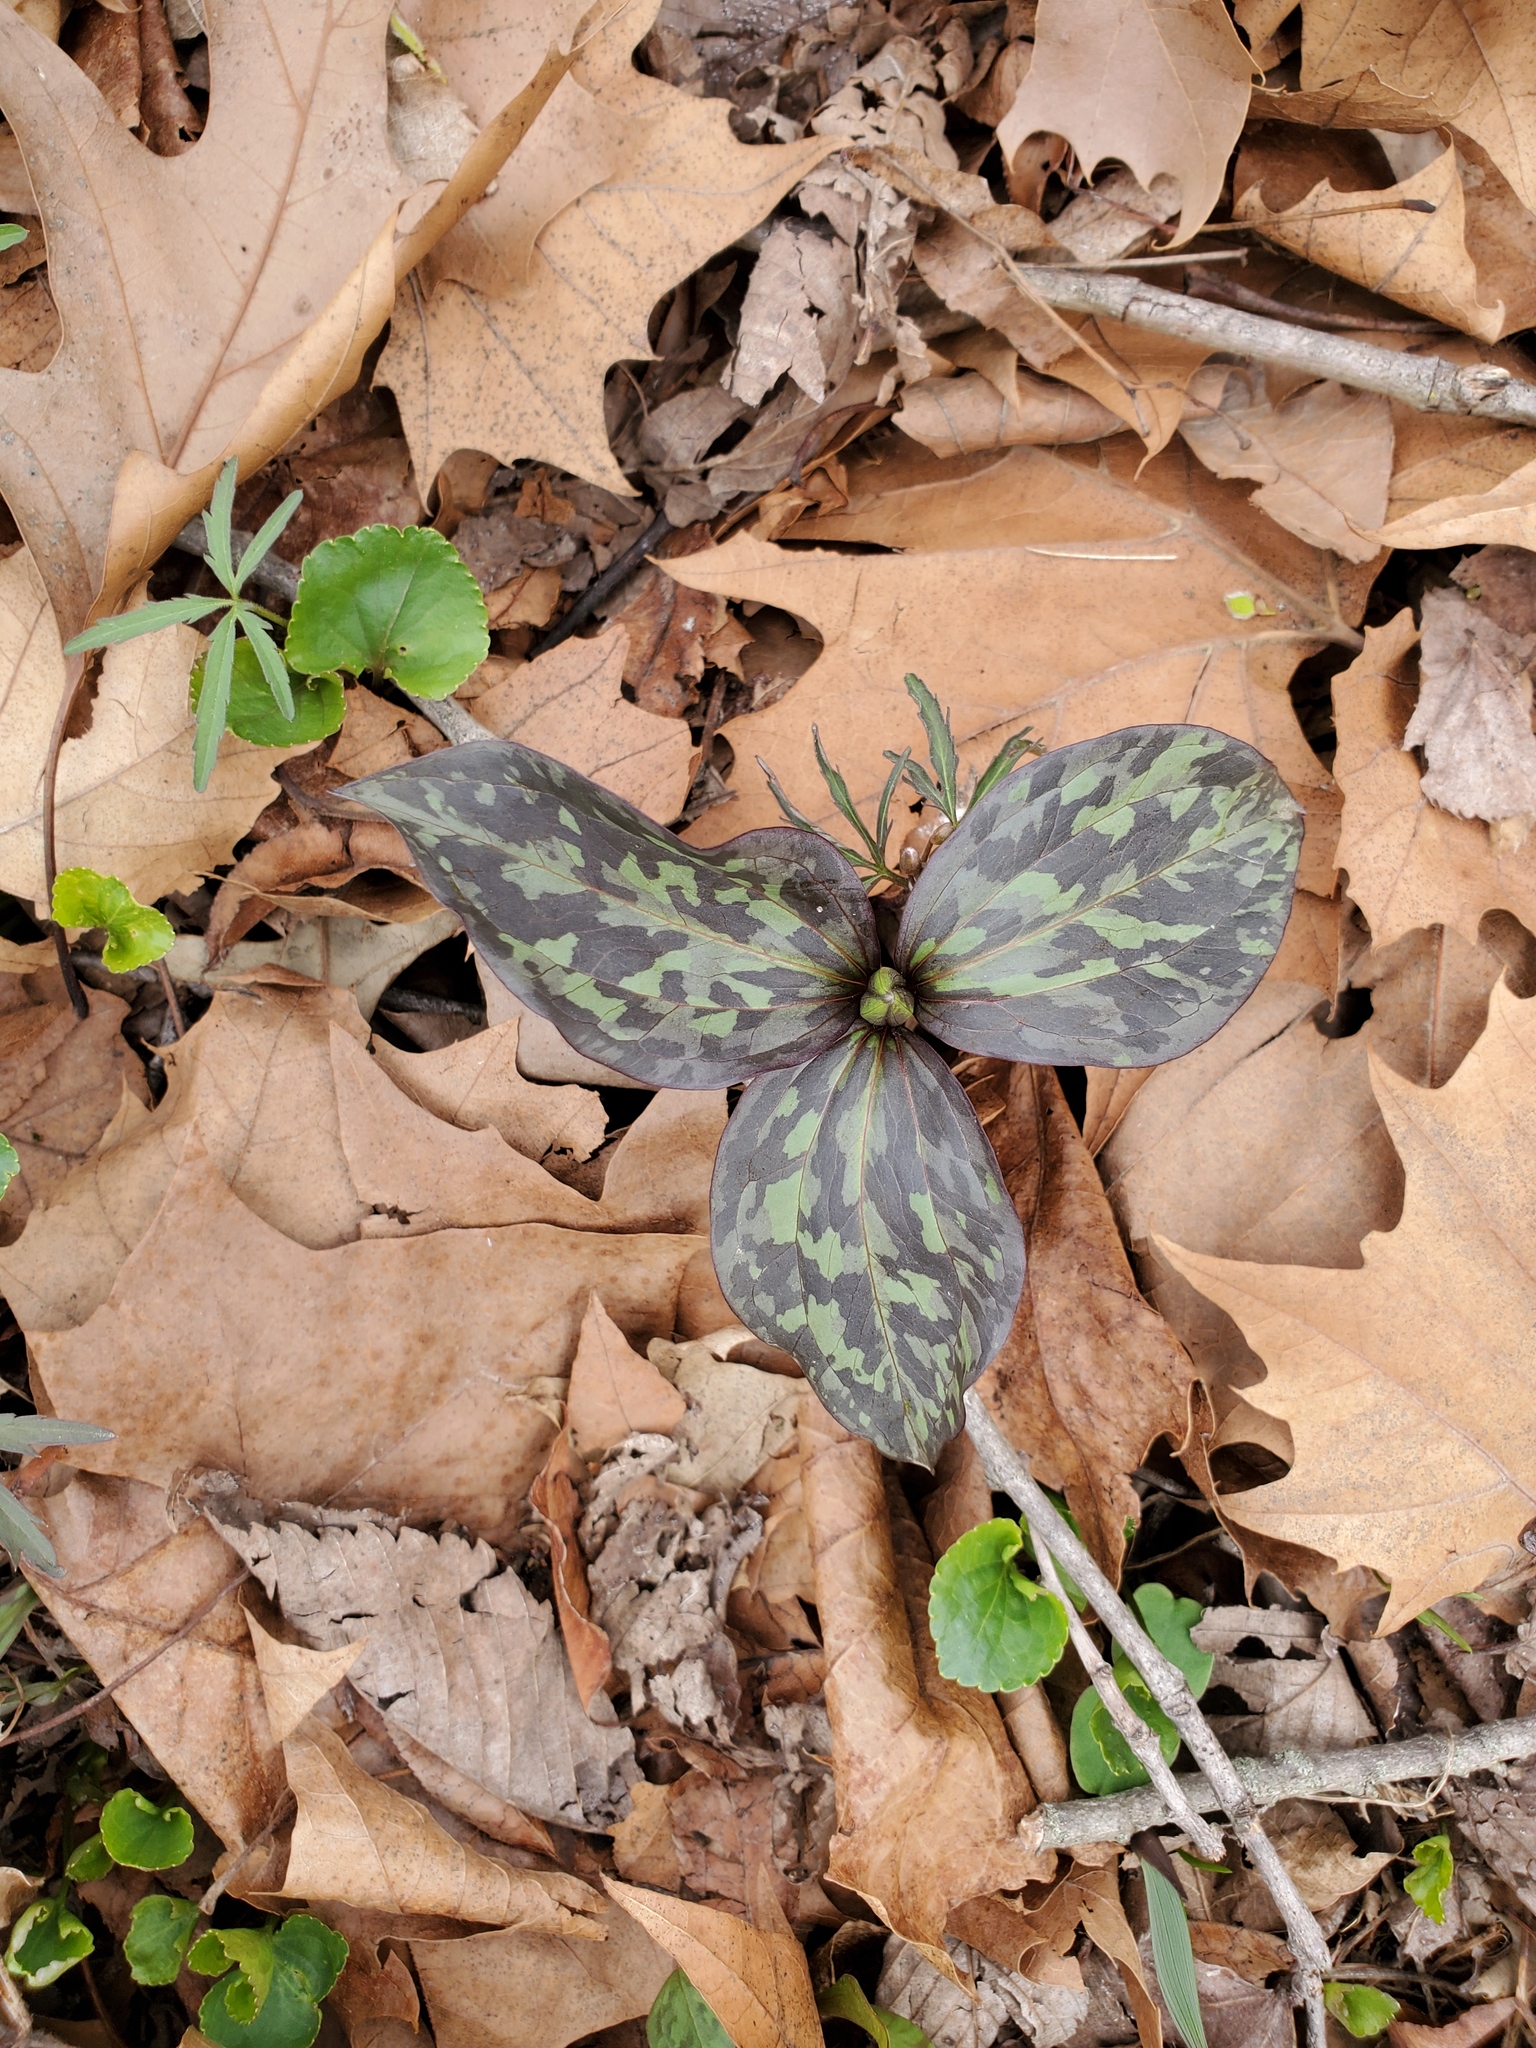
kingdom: Plantae
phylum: Tracheophyta
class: Liliopsida
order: Liliales
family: Melanthiaceae
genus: Trillium
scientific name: Trillium recurvatum
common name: Bloody butcher
